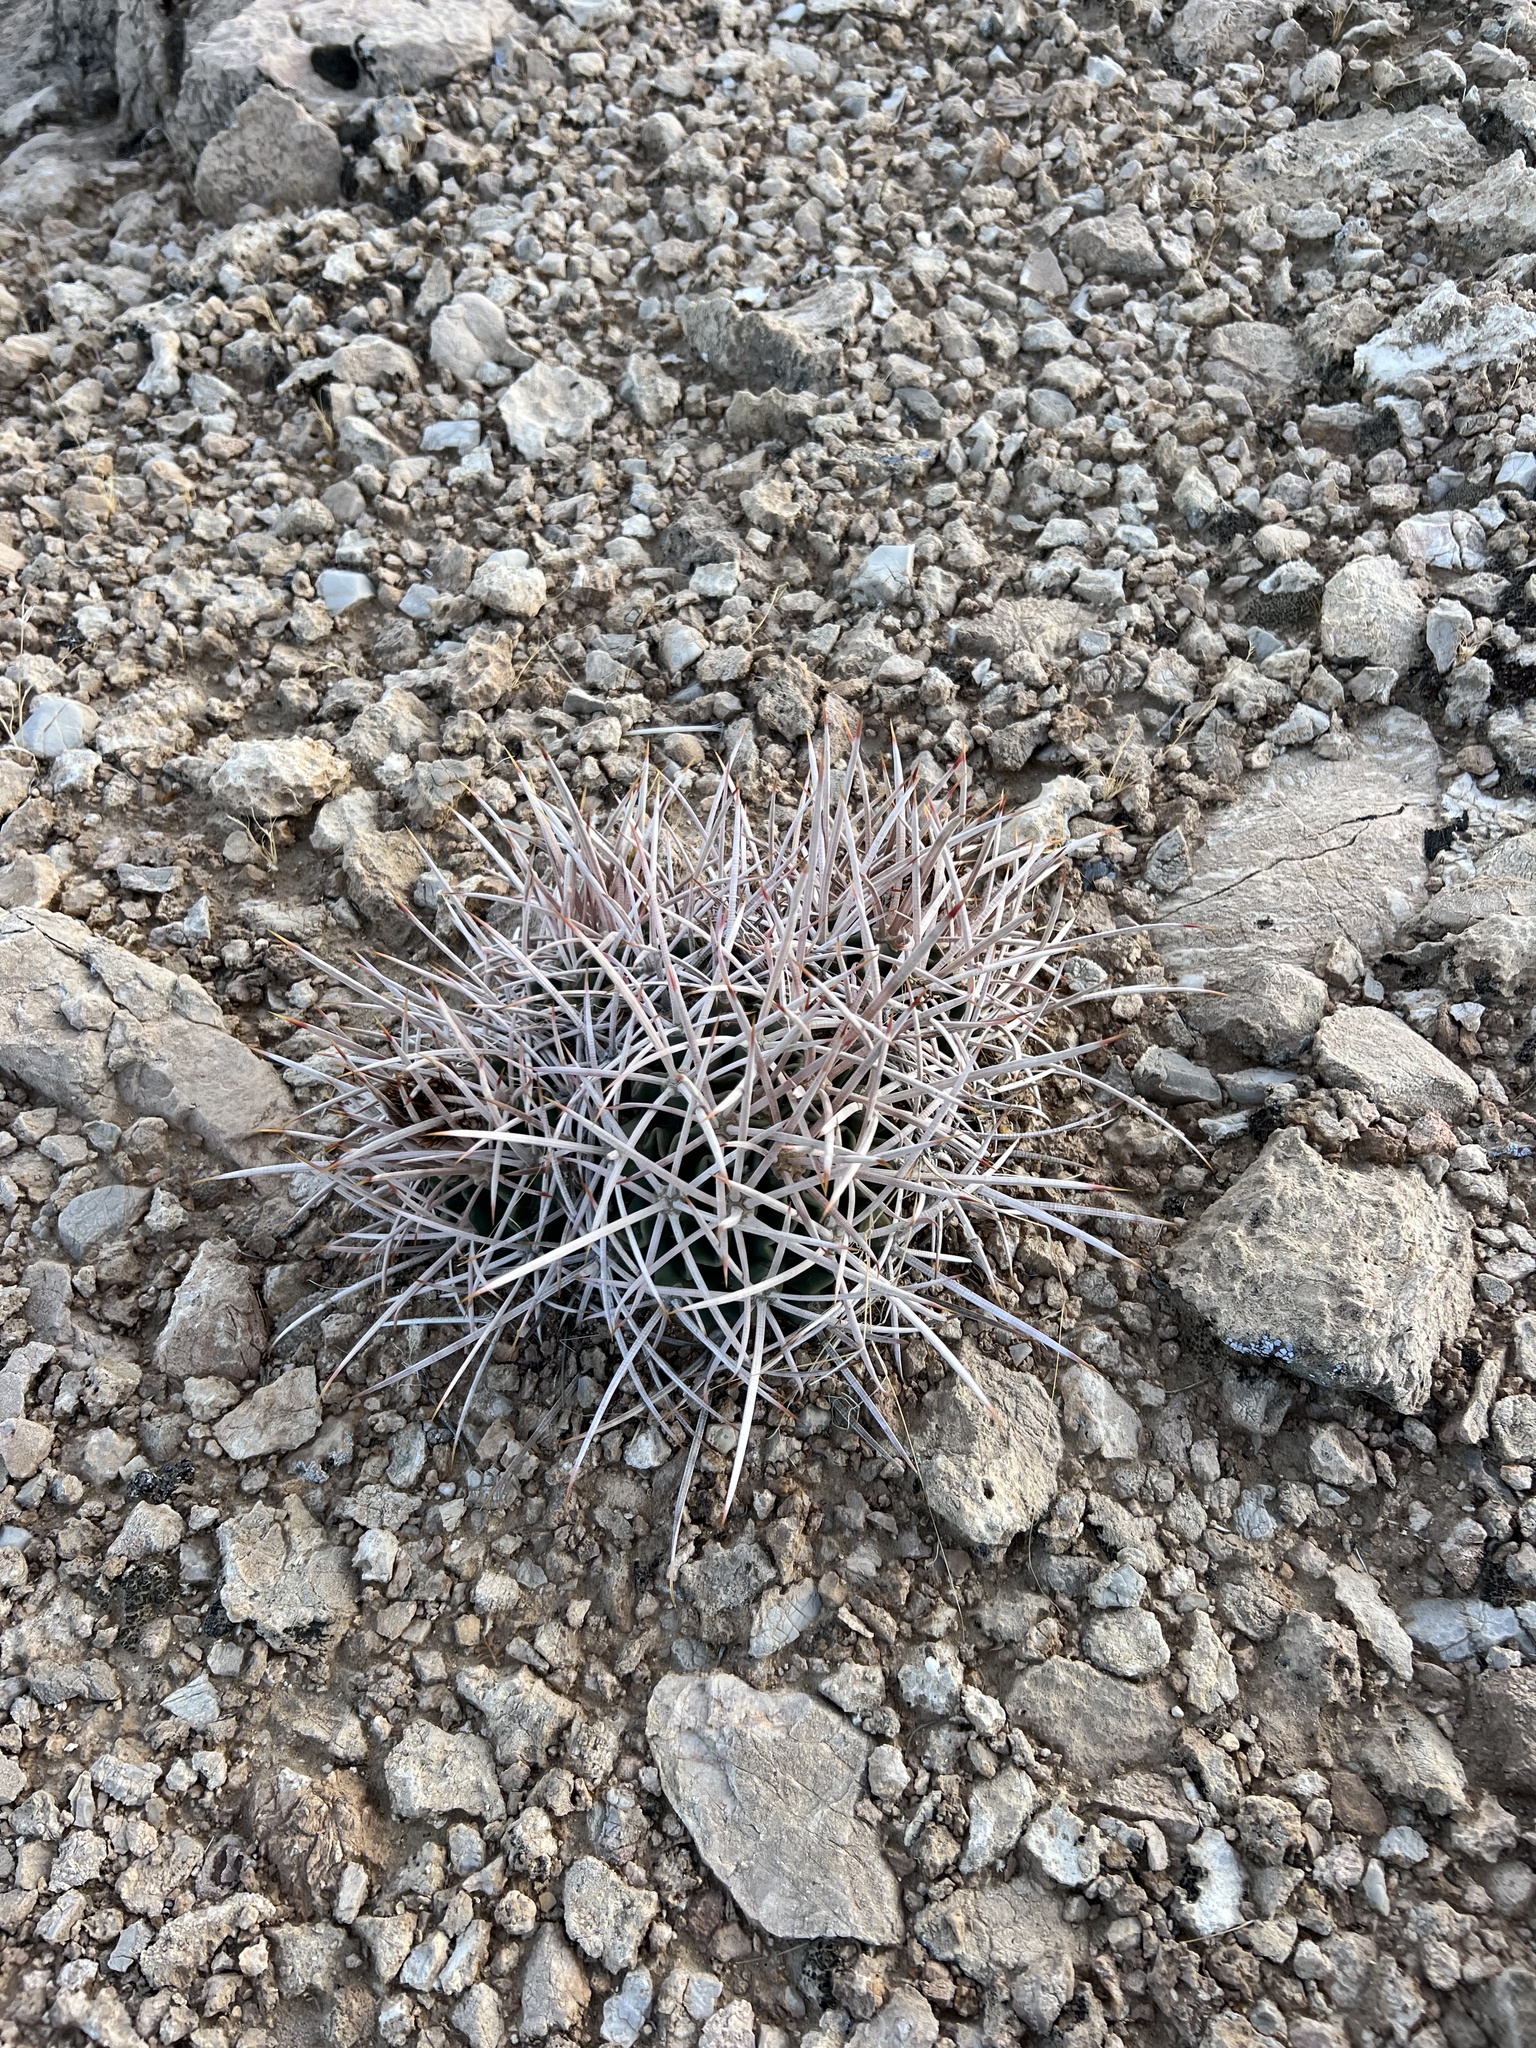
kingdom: Plantae
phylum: Tracheophyta
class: Magnoliopsida
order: Caryophyllales
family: Cactaceae
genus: Echinocactus
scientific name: Echinocactus polycephalus
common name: Cottontop cactus
